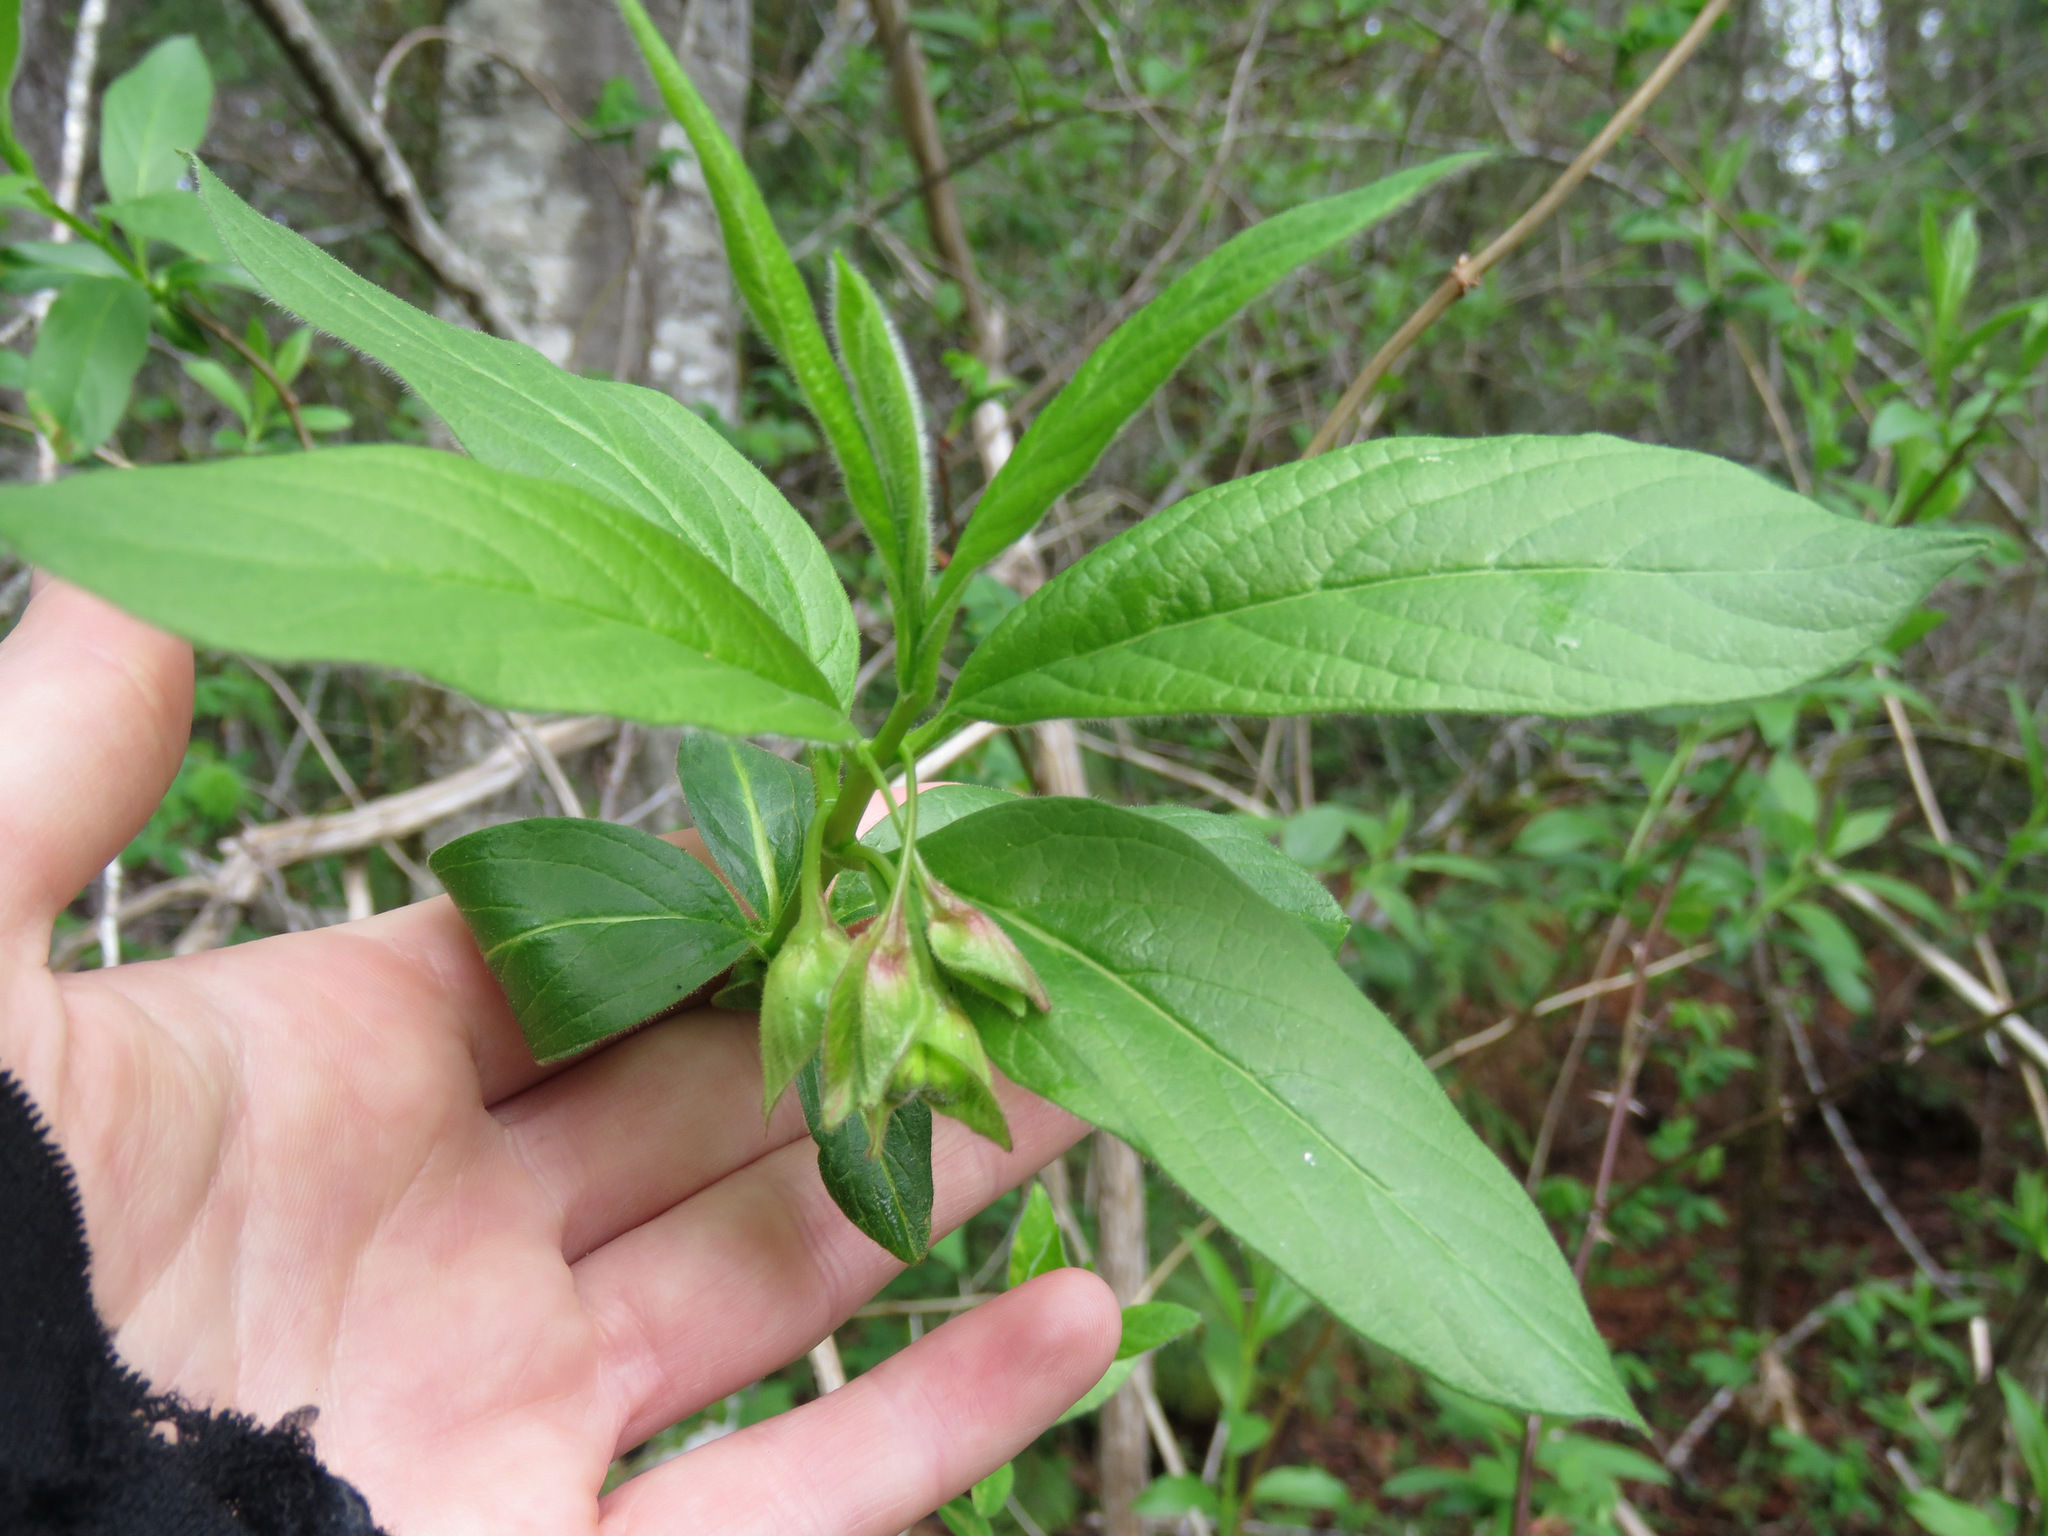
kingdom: Plantae
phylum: Tracheophyta
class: Magnoliopsida
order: Dipsacales
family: Caprifoliaceae
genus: Lonicera
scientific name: Lonicera involucrata
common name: Californian honeysuckle
